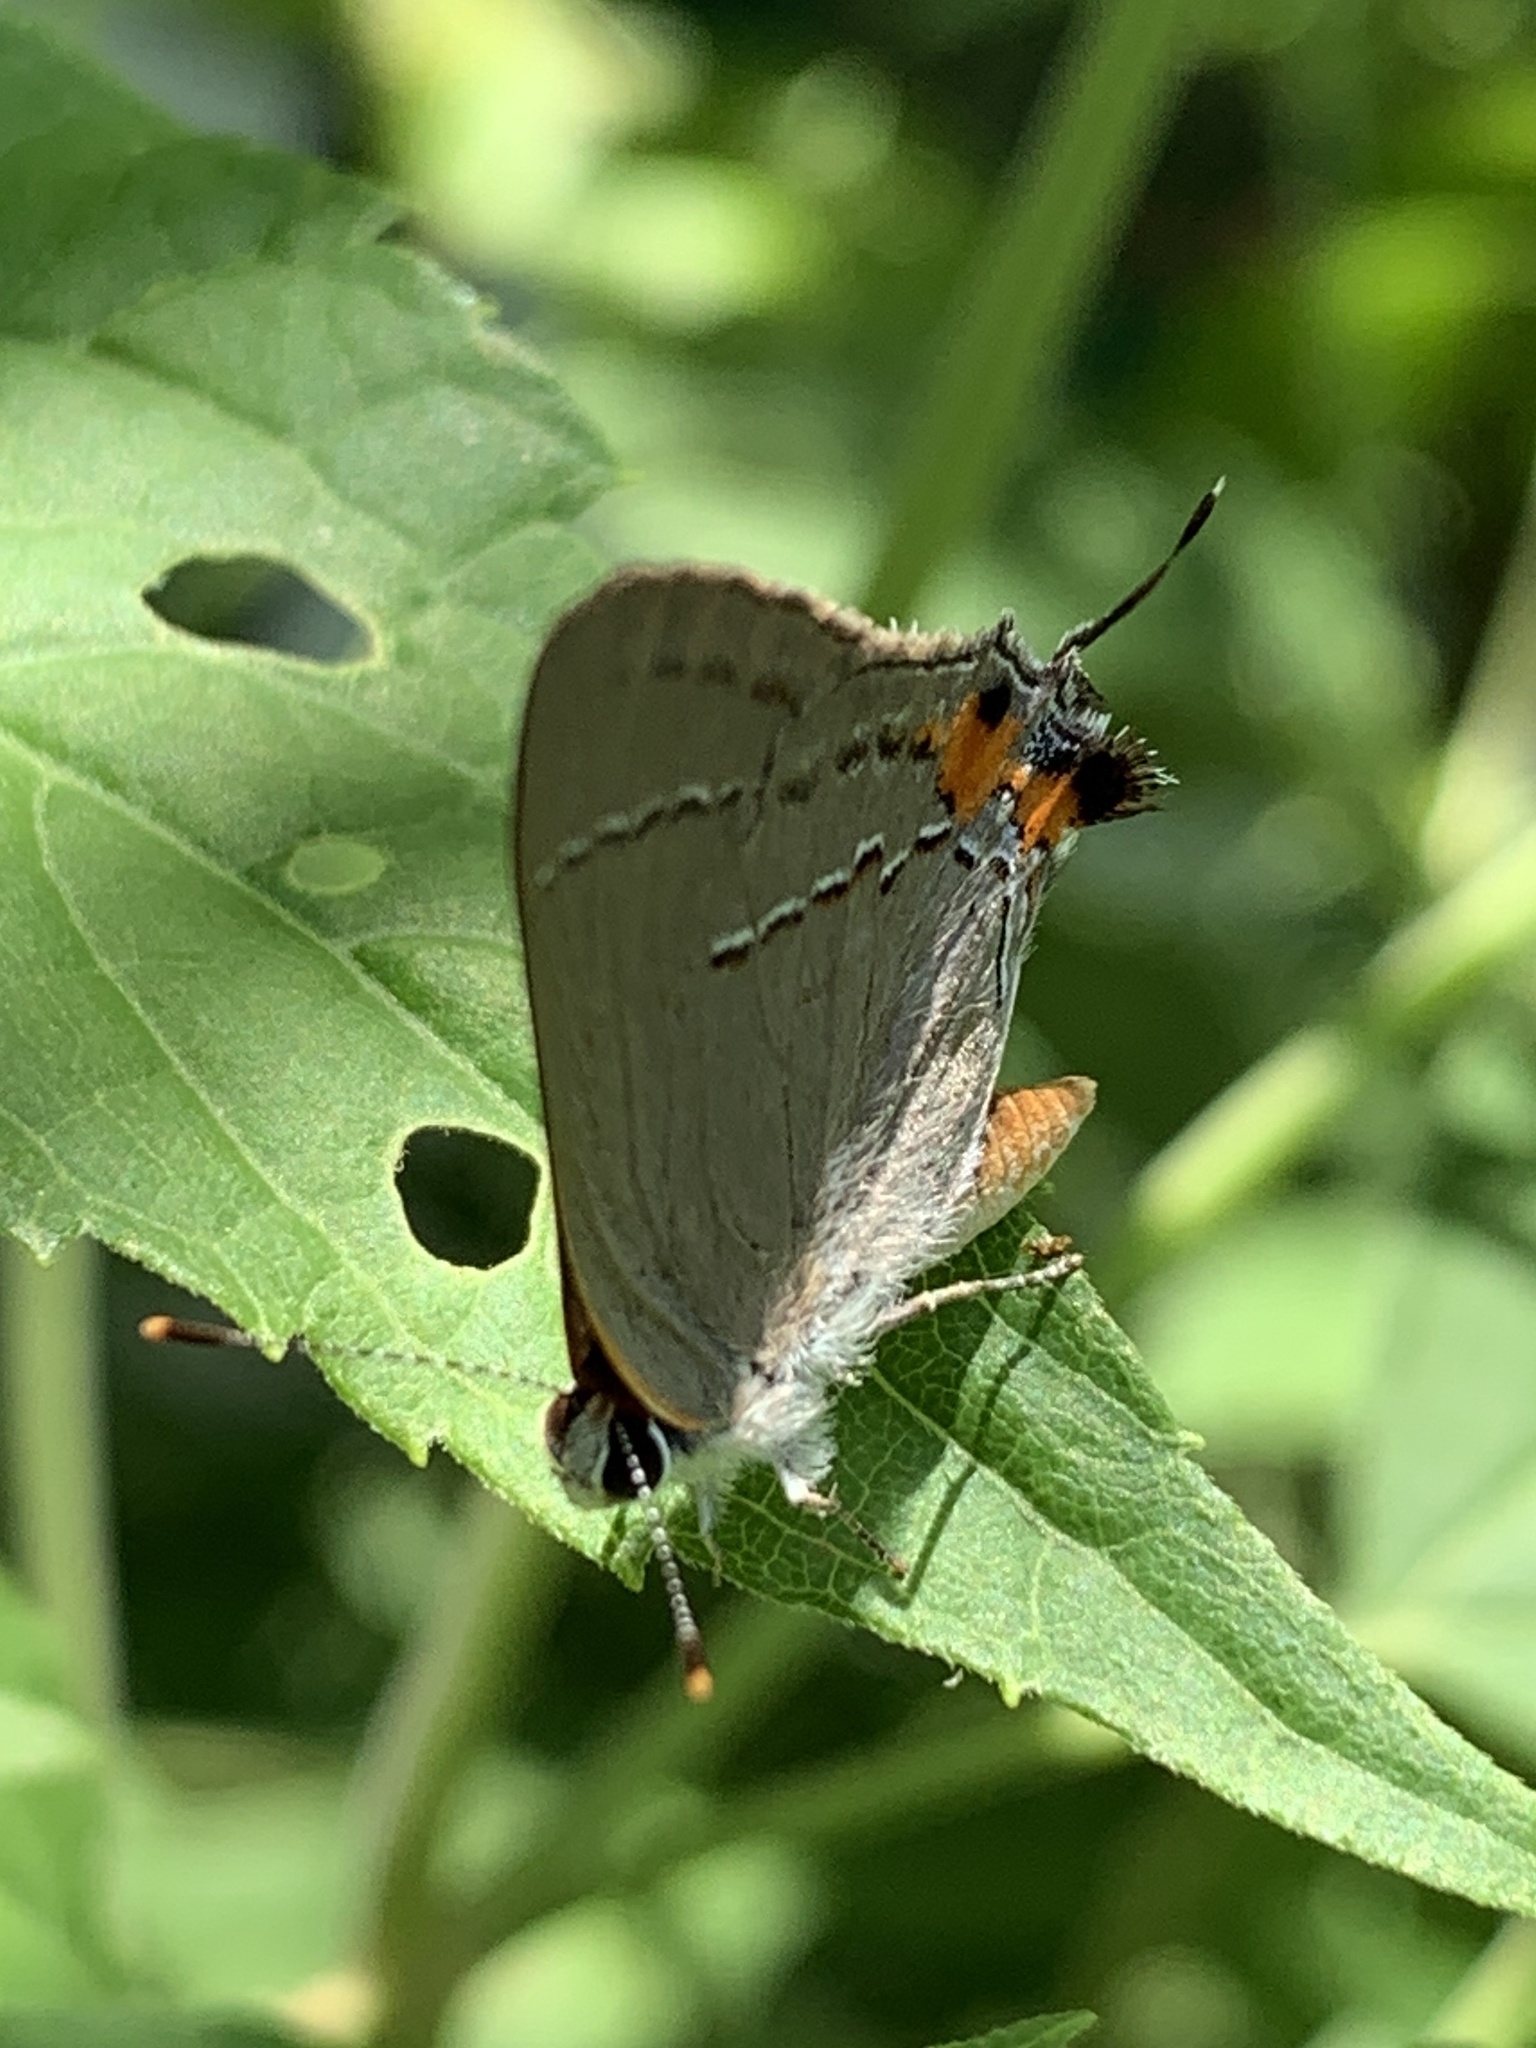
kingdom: Animalia
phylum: Arthropoda
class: Insecta
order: Lepidoptera
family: Lycaenidae
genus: Calycopis
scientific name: Calycopis cecrops
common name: Red-banded hairstreak
